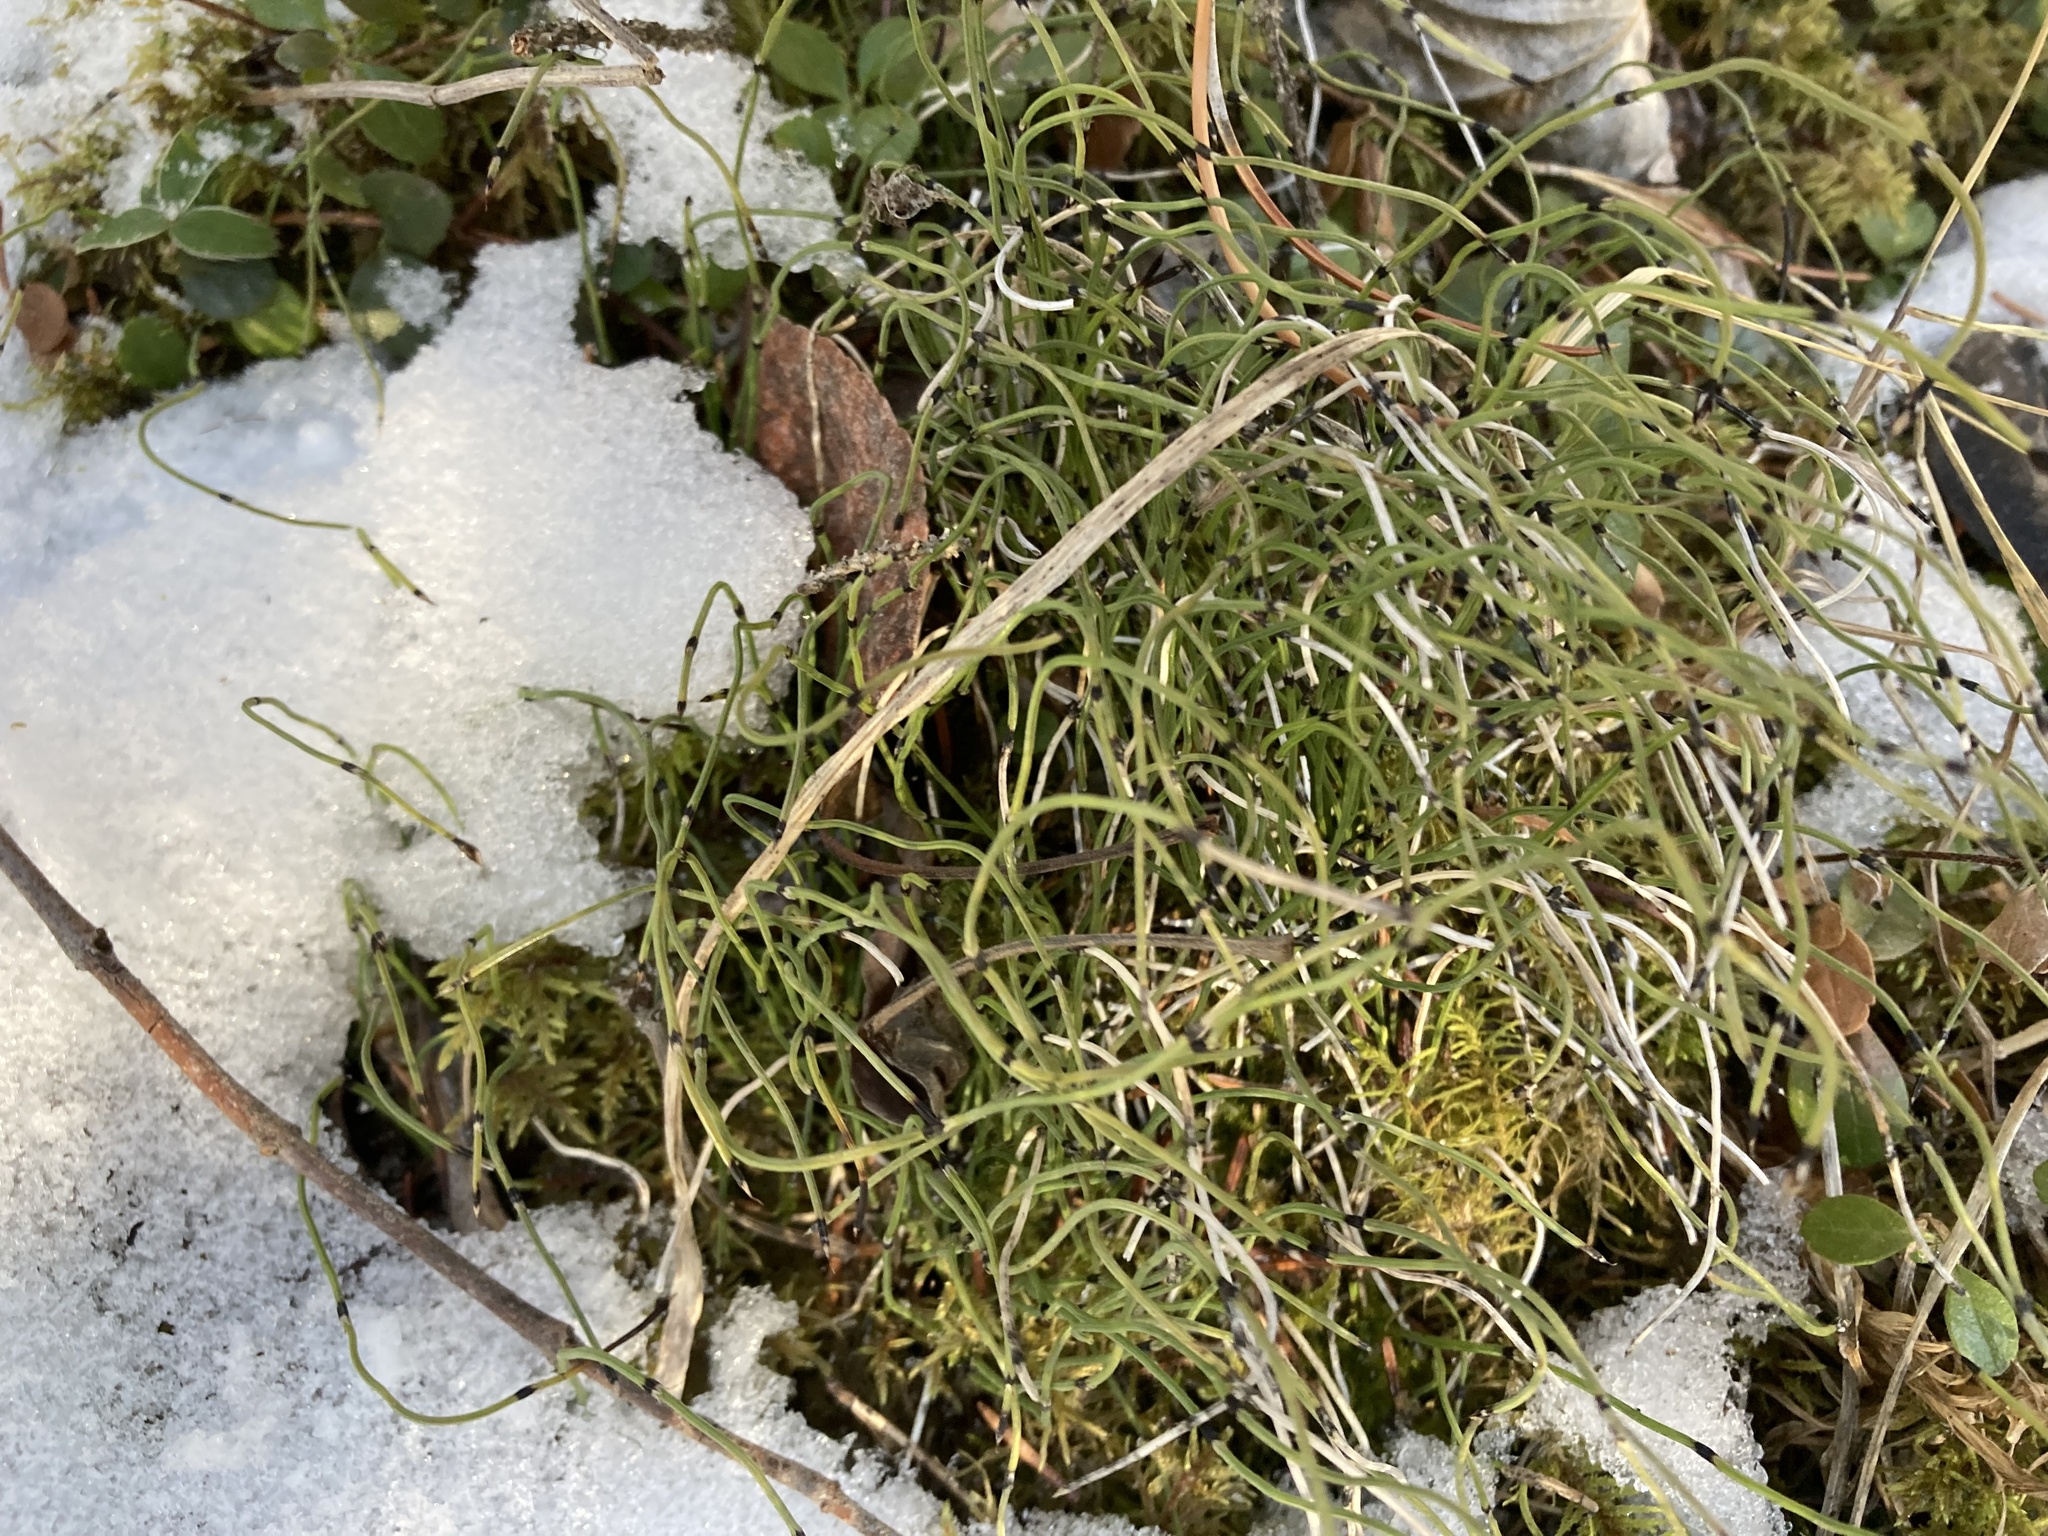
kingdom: Plantae
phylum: Tracheophyta
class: Polypodiopsida
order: Equisetales
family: Equisetaceae
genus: Equisetum
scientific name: Equisetum scirpoides
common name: Delicate horsetail
